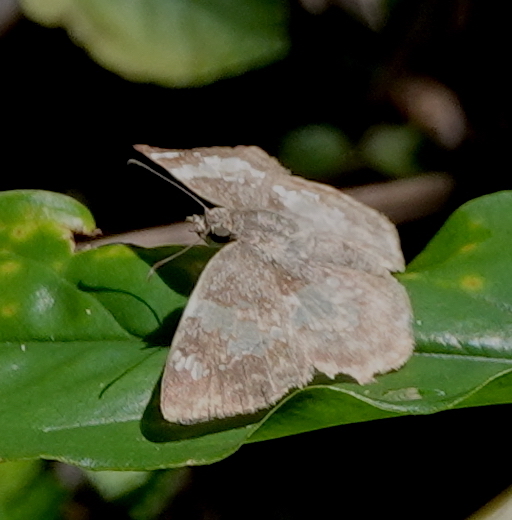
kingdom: Animalia
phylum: Arthropoda
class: Insecta
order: Lepidoptera
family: Hesperiidae
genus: Xenophanes
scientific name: Xenophanes tryxus
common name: Glassy-winged skipper
